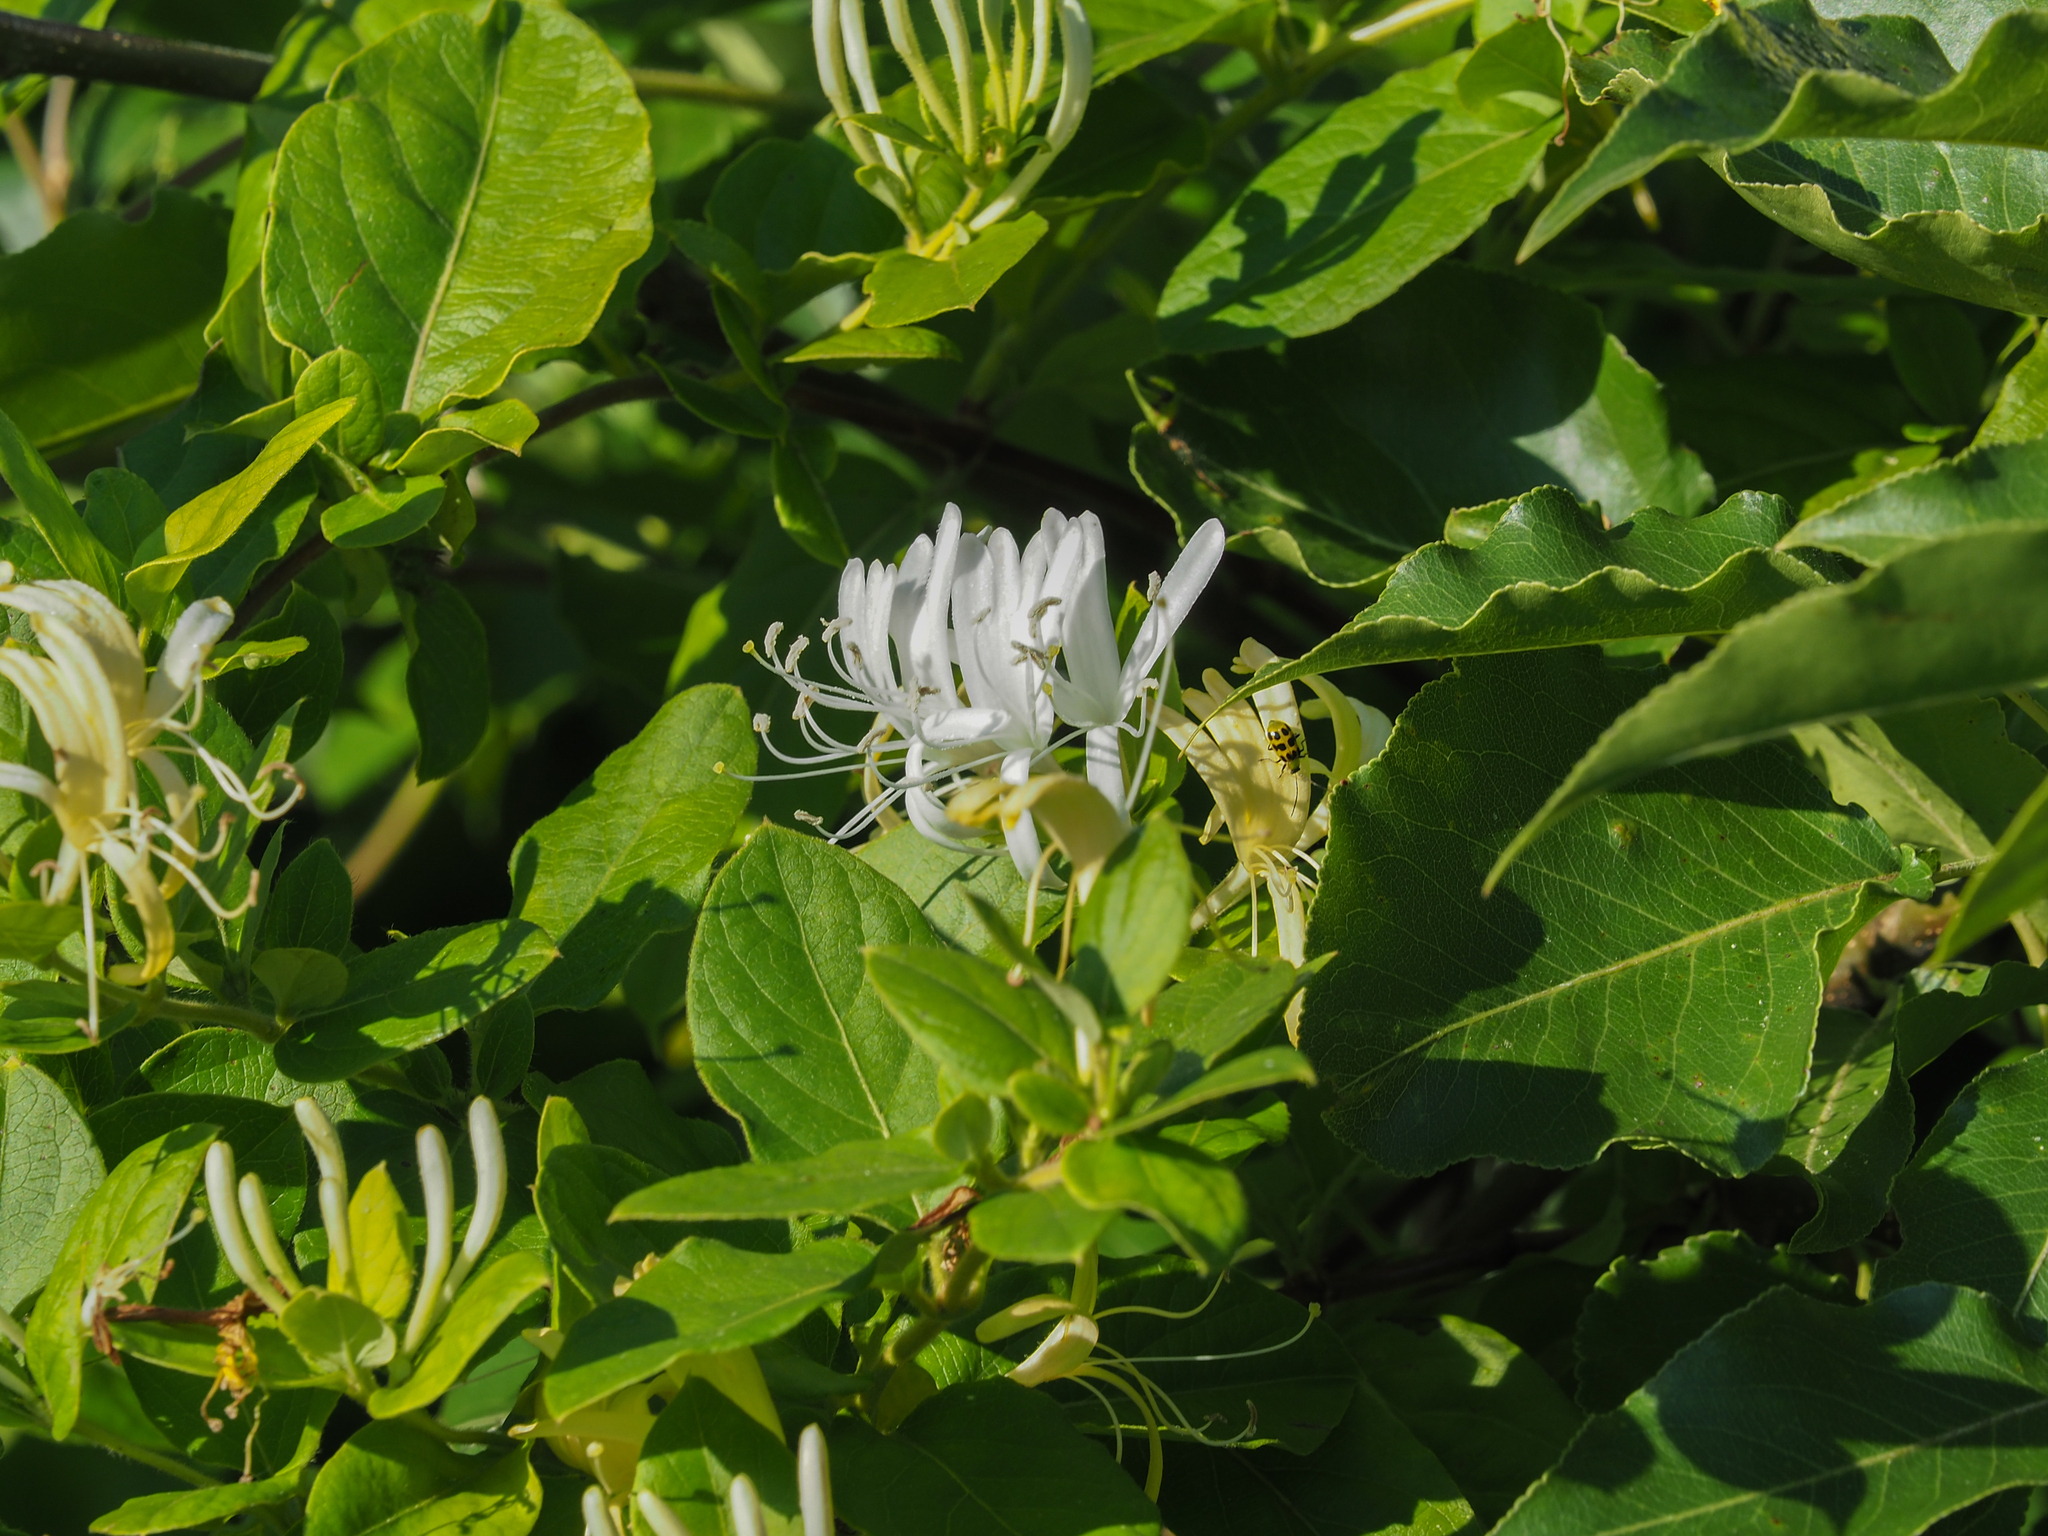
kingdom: Plantae
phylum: Tracheophyta
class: Magnoliopsida
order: Dipsacales
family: Caprifoliaceae
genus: Lonicera
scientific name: Lonicera japonica
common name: Japanese honeysuckle
